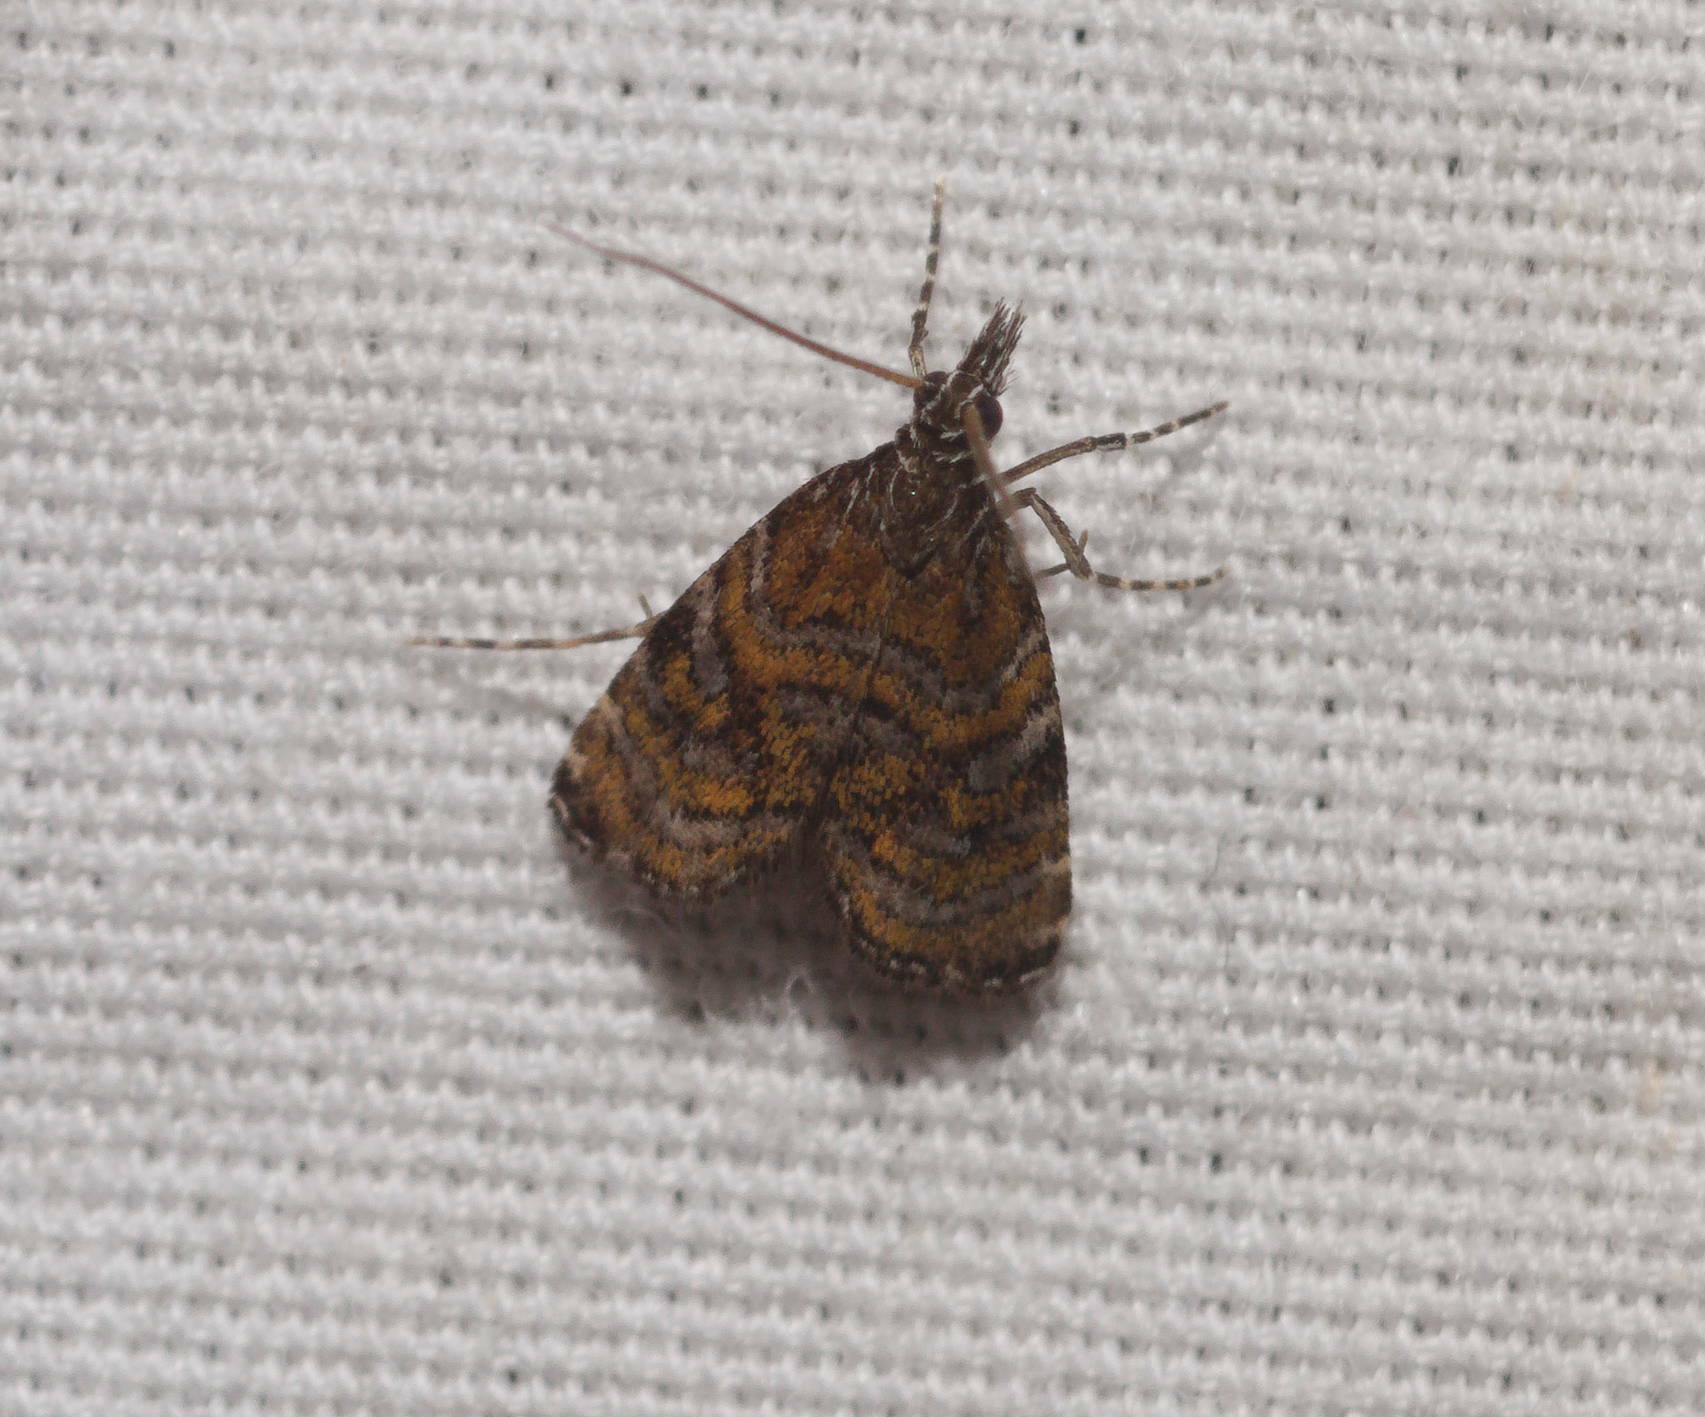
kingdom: Animalia
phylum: Arthropoda
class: Insecta
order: Lepidoptera
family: Crambidae
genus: Mestolobes
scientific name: Mestolobes quadrifasciata
